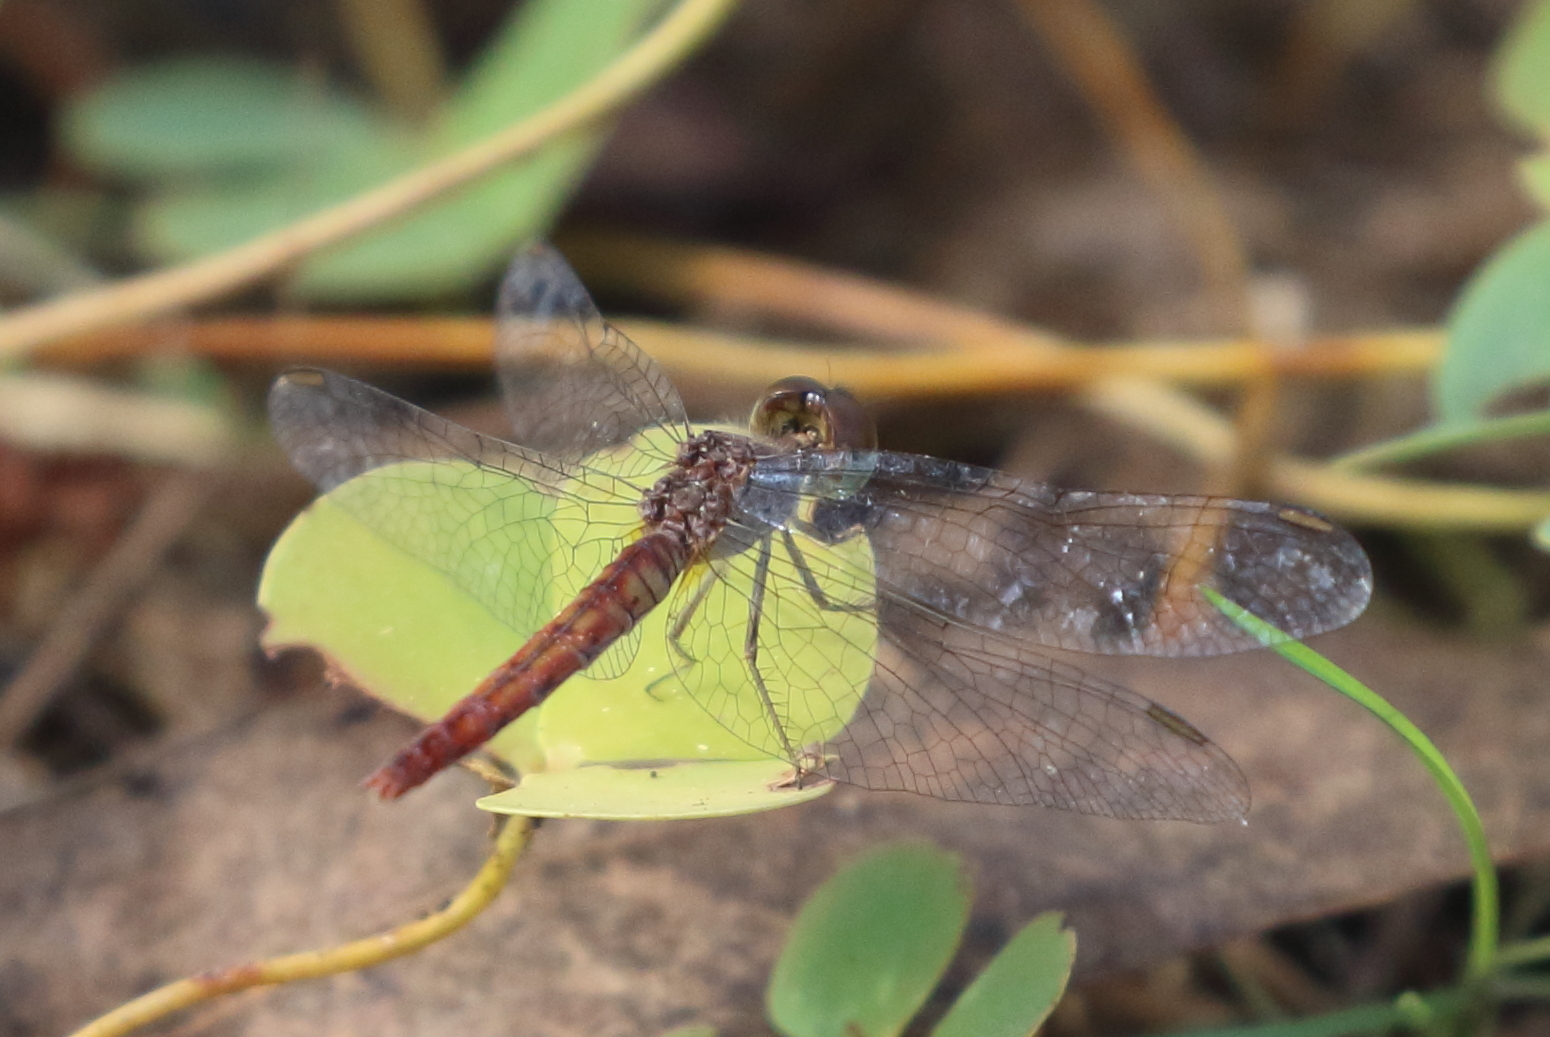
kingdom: Animalia
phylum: Arthropoda
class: Insecta
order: Odonata
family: Libellulidae
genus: Nannodiplax
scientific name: Nannodiplax rubra
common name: Pygmy percher
